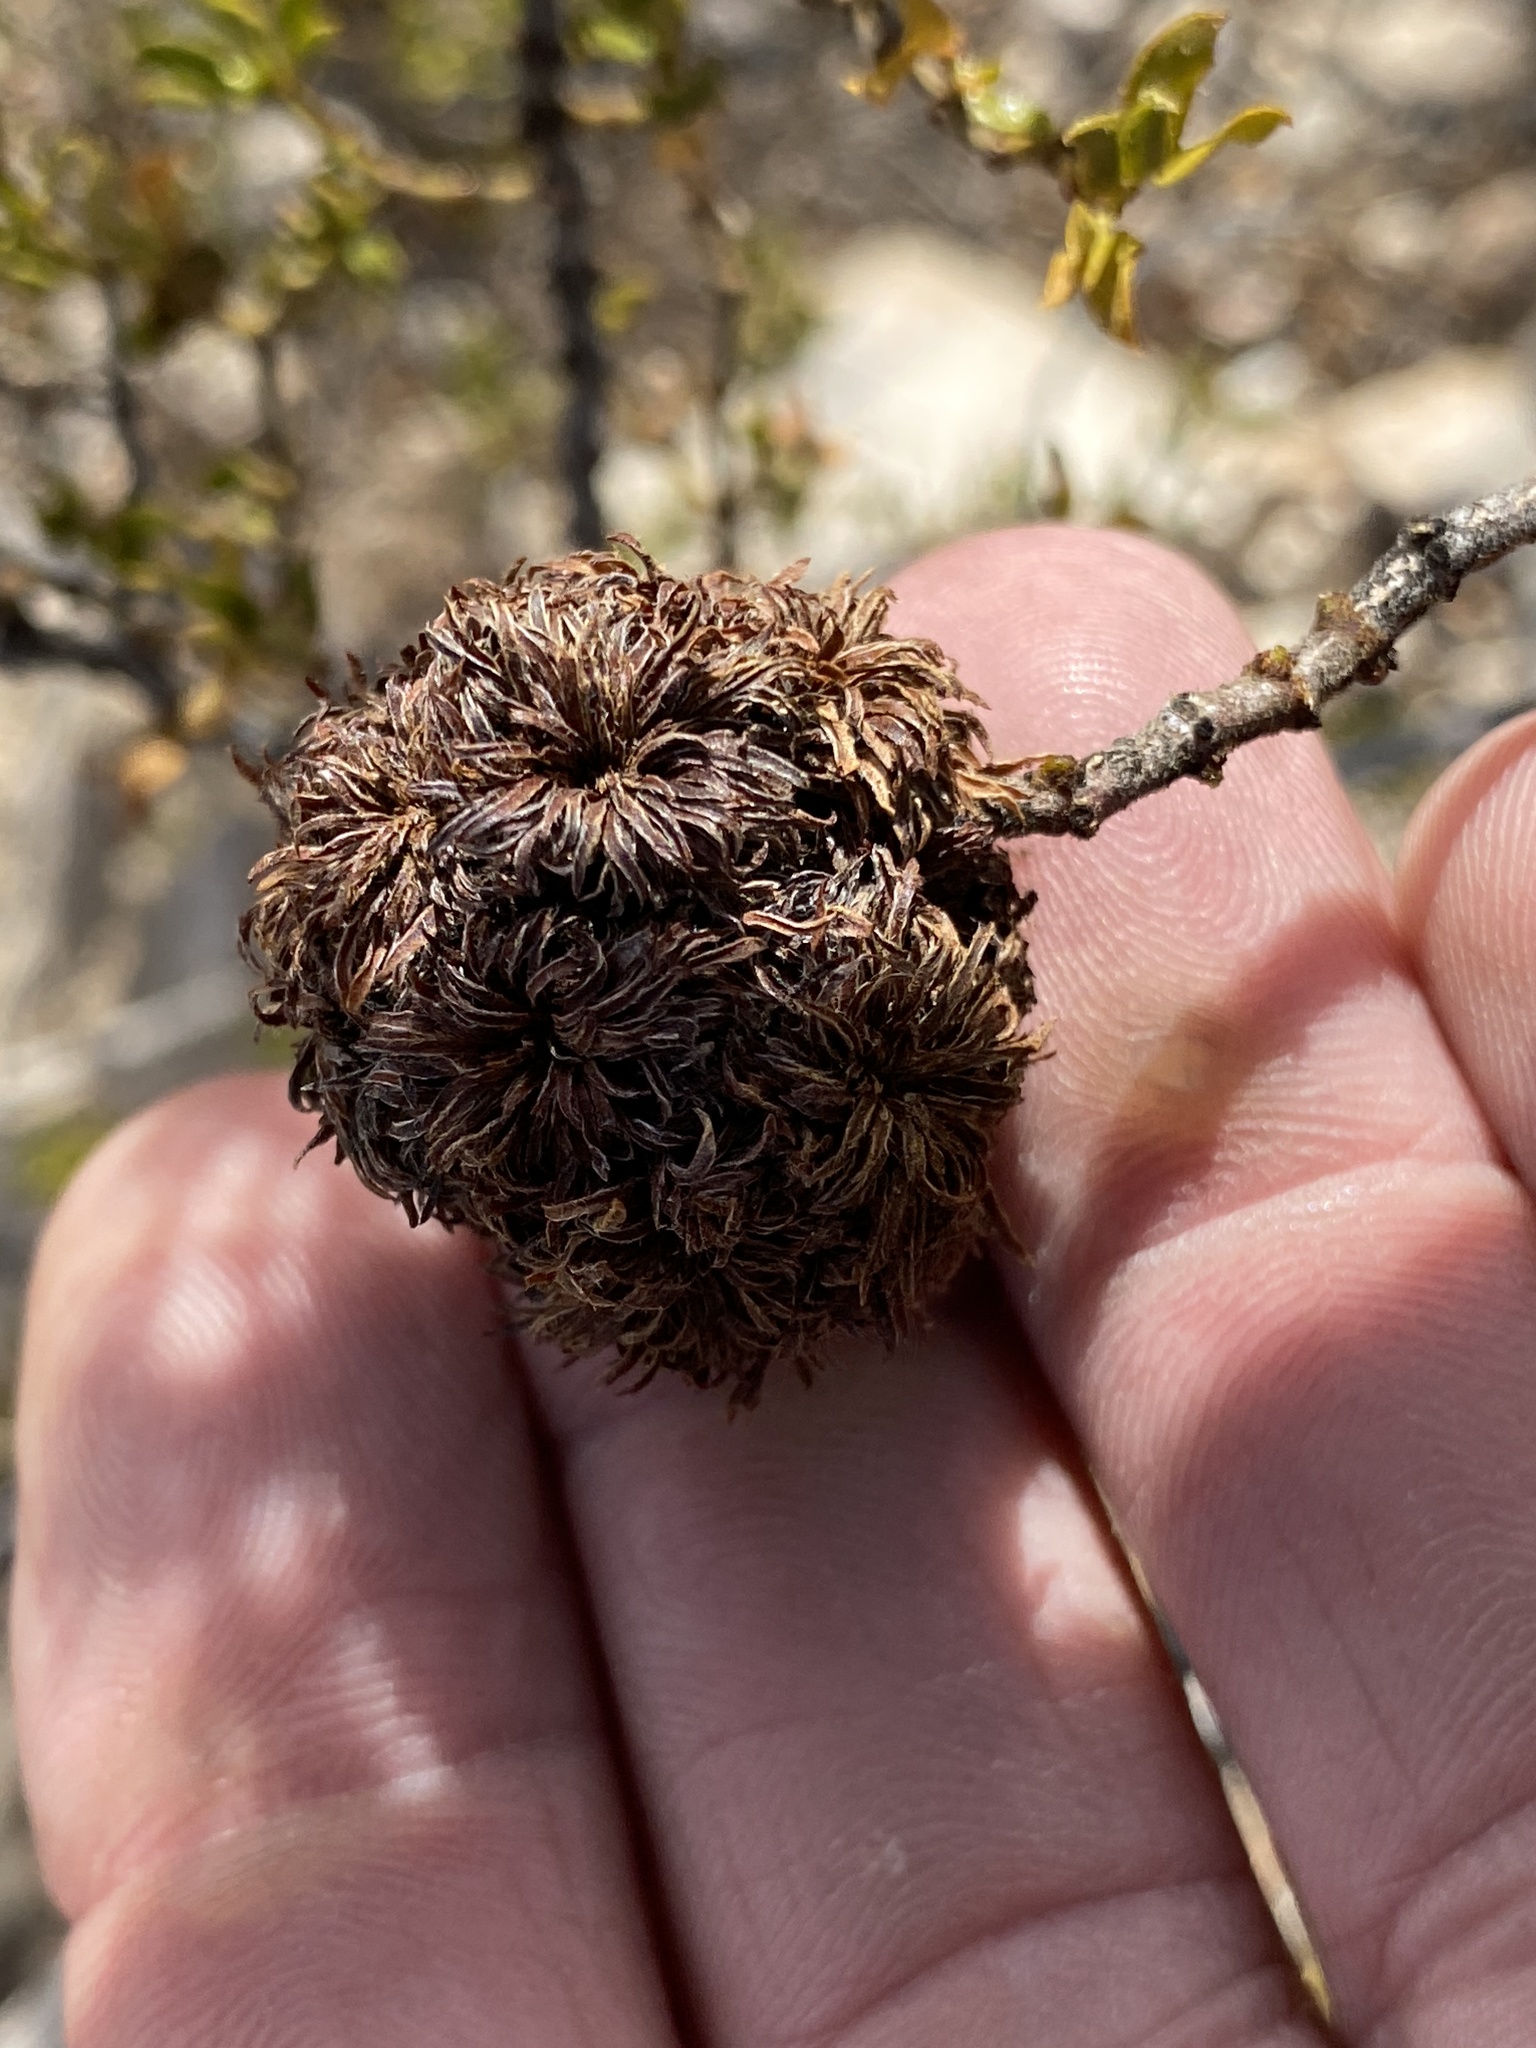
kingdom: Animalia
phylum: Arthropoda
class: Insecta
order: Diptera
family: Cecidomyiidae
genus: Asphondylia
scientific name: Asphondylia auripila
